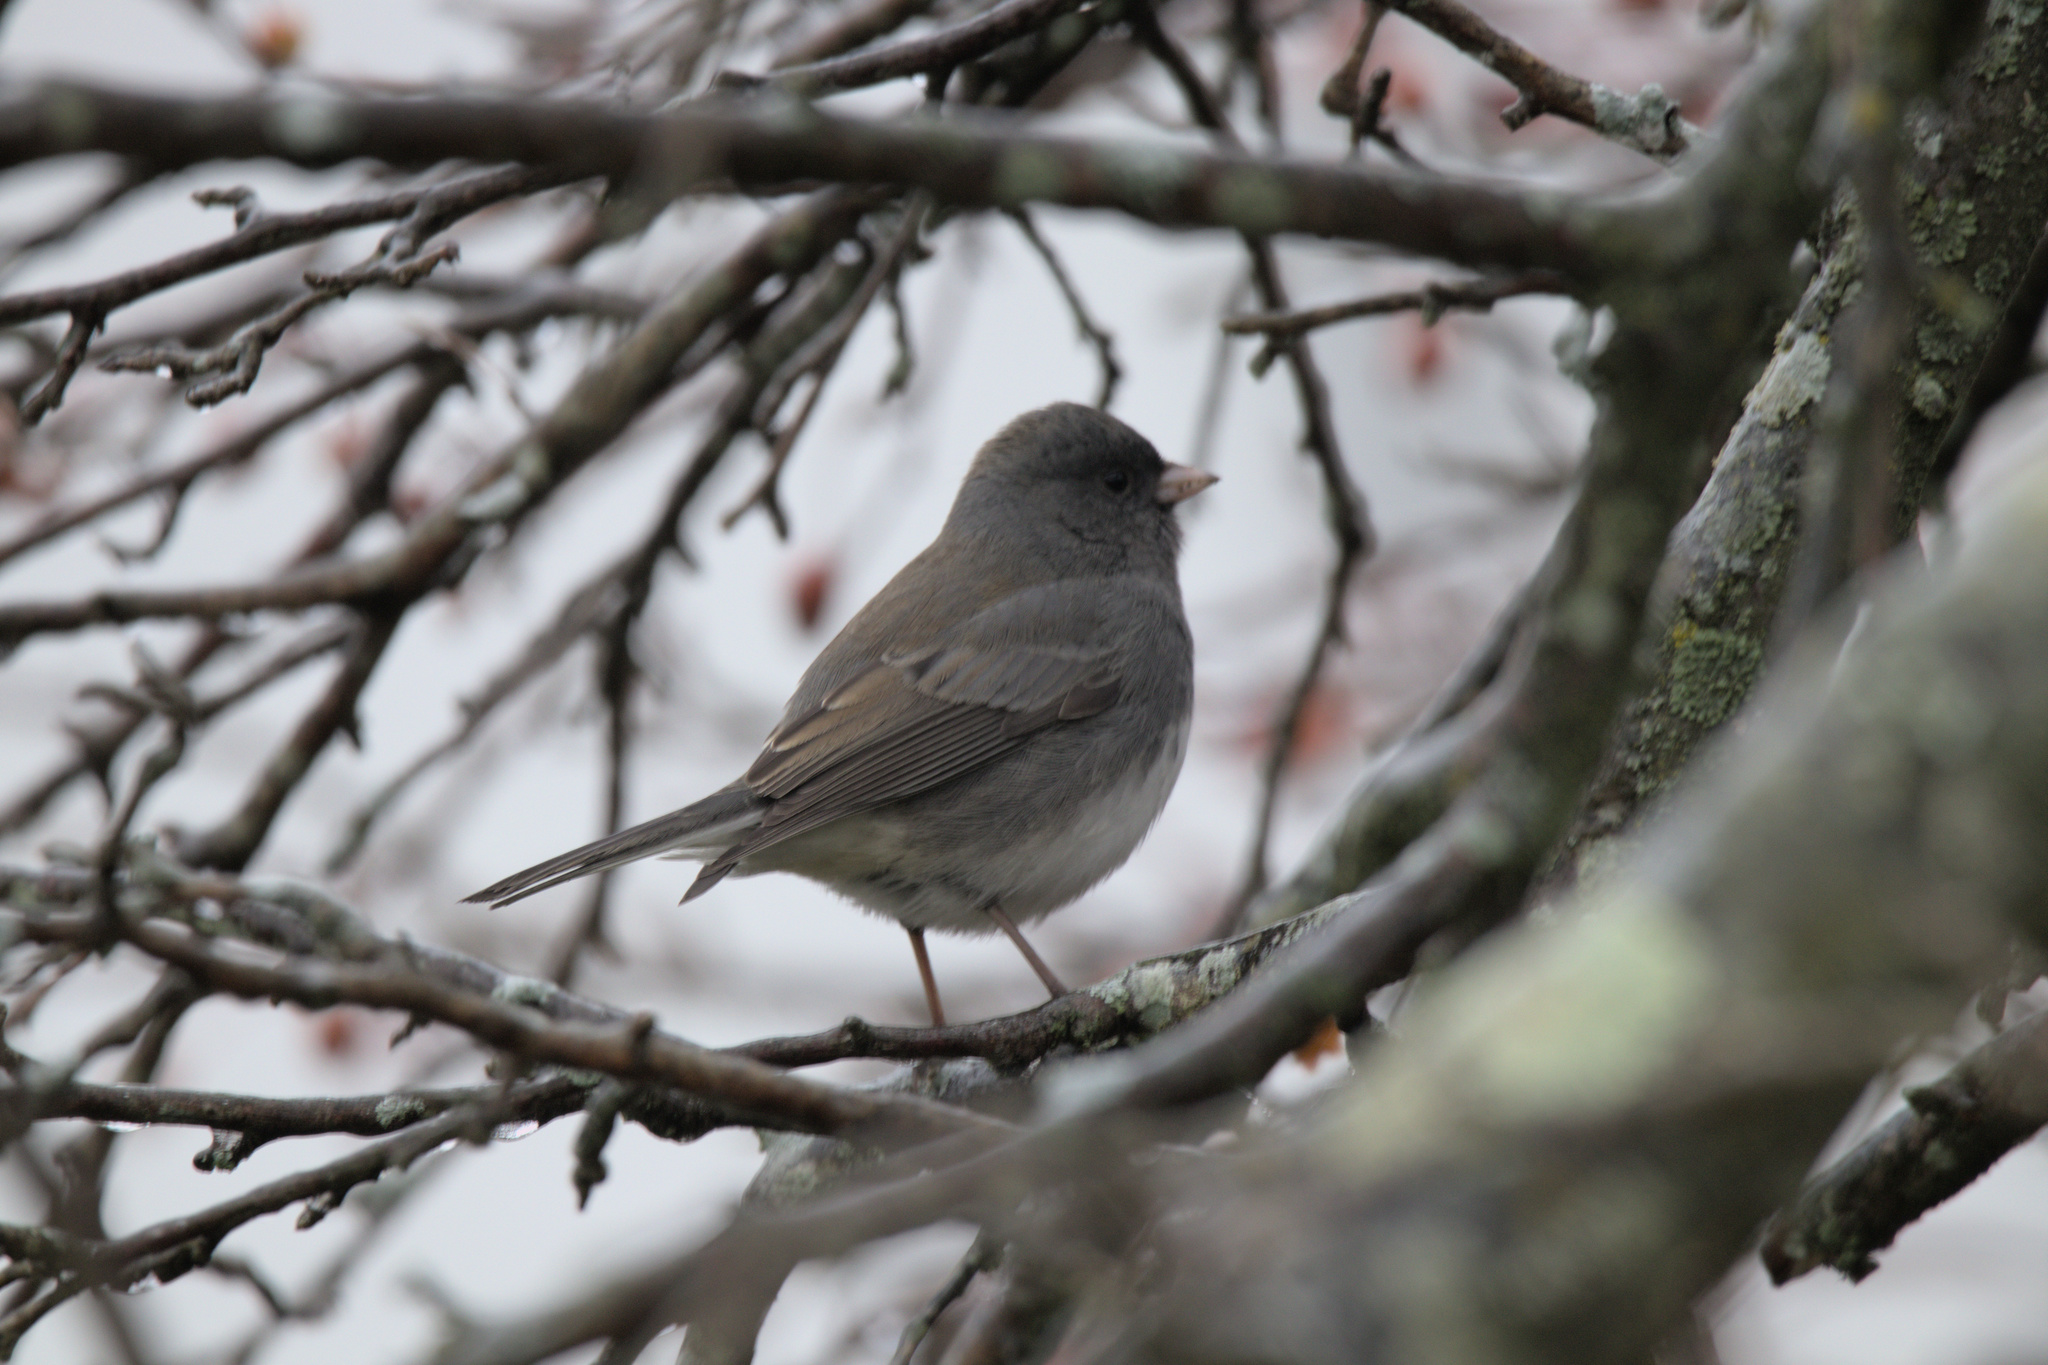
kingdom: Animalia
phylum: Chordata
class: Aves
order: Passeriformes
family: Passerellidae
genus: Junco
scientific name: Junco hyemalis
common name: Dark-eyed junco
